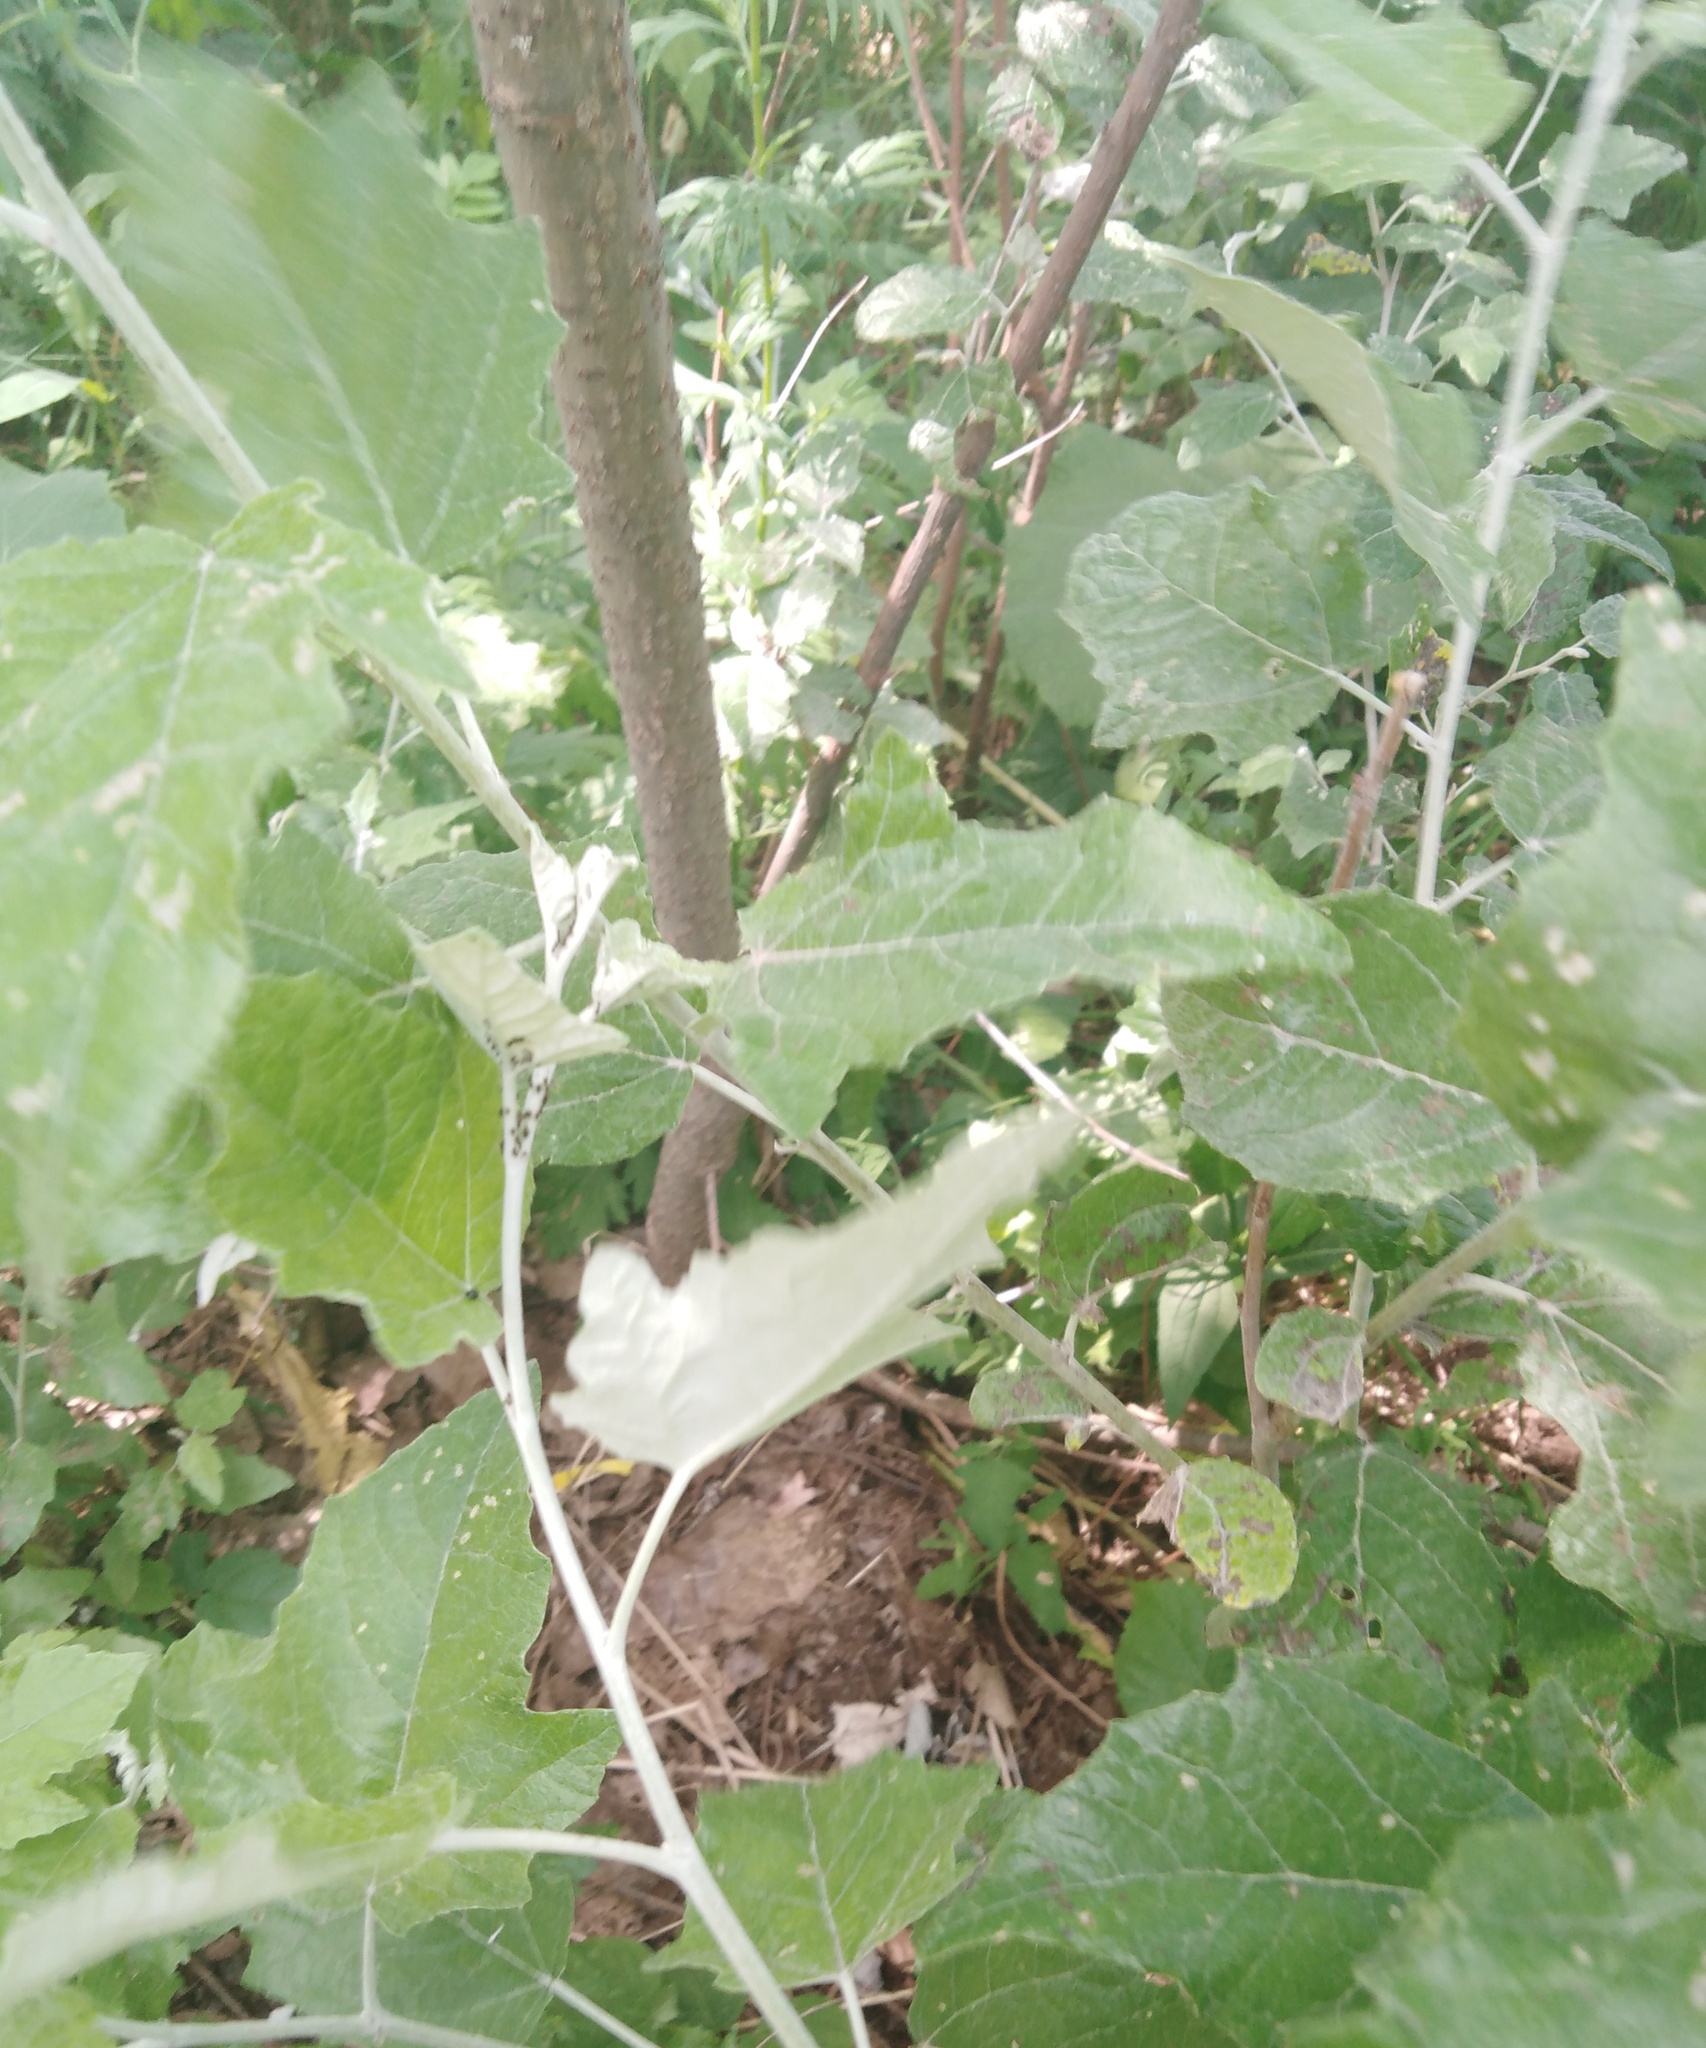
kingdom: Plantae
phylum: Tracheophyta
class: Magnoliopsida
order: Malpighiales
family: Salicaceae
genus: Populus
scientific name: Populus alba
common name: White poplar
